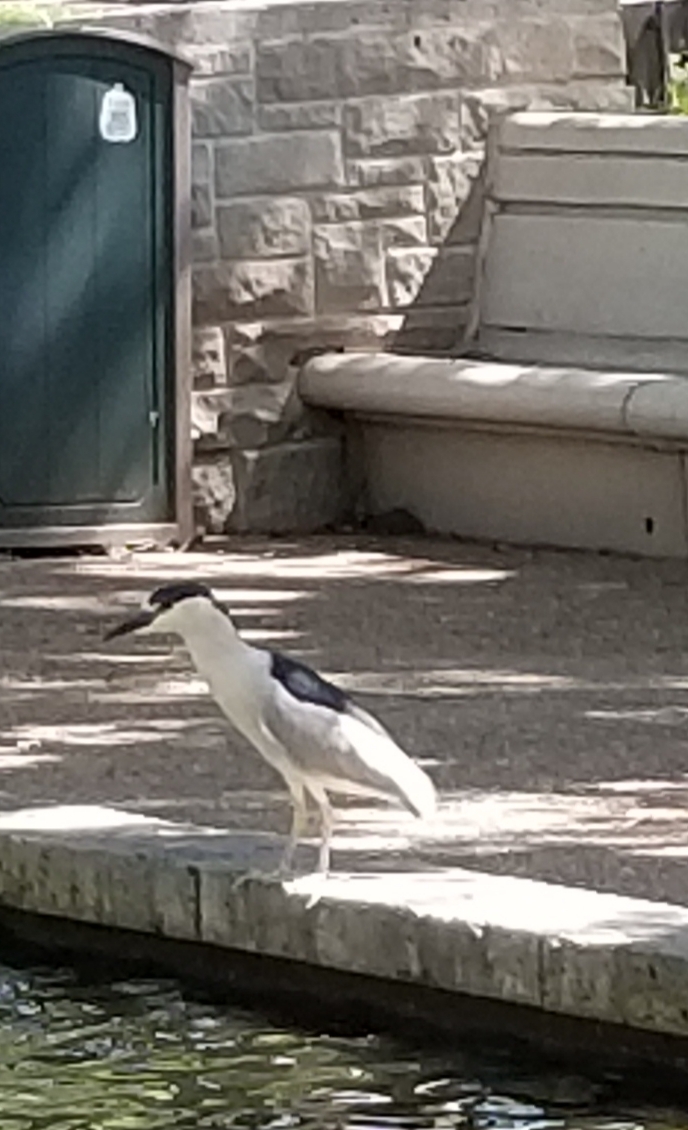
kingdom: Animalia
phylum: Chordata
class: Aves
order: Pelecaniformes
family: Ardeidae
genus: Nycticorax
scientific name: Nycticorax nycticorax
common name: Black-crowned night heron
